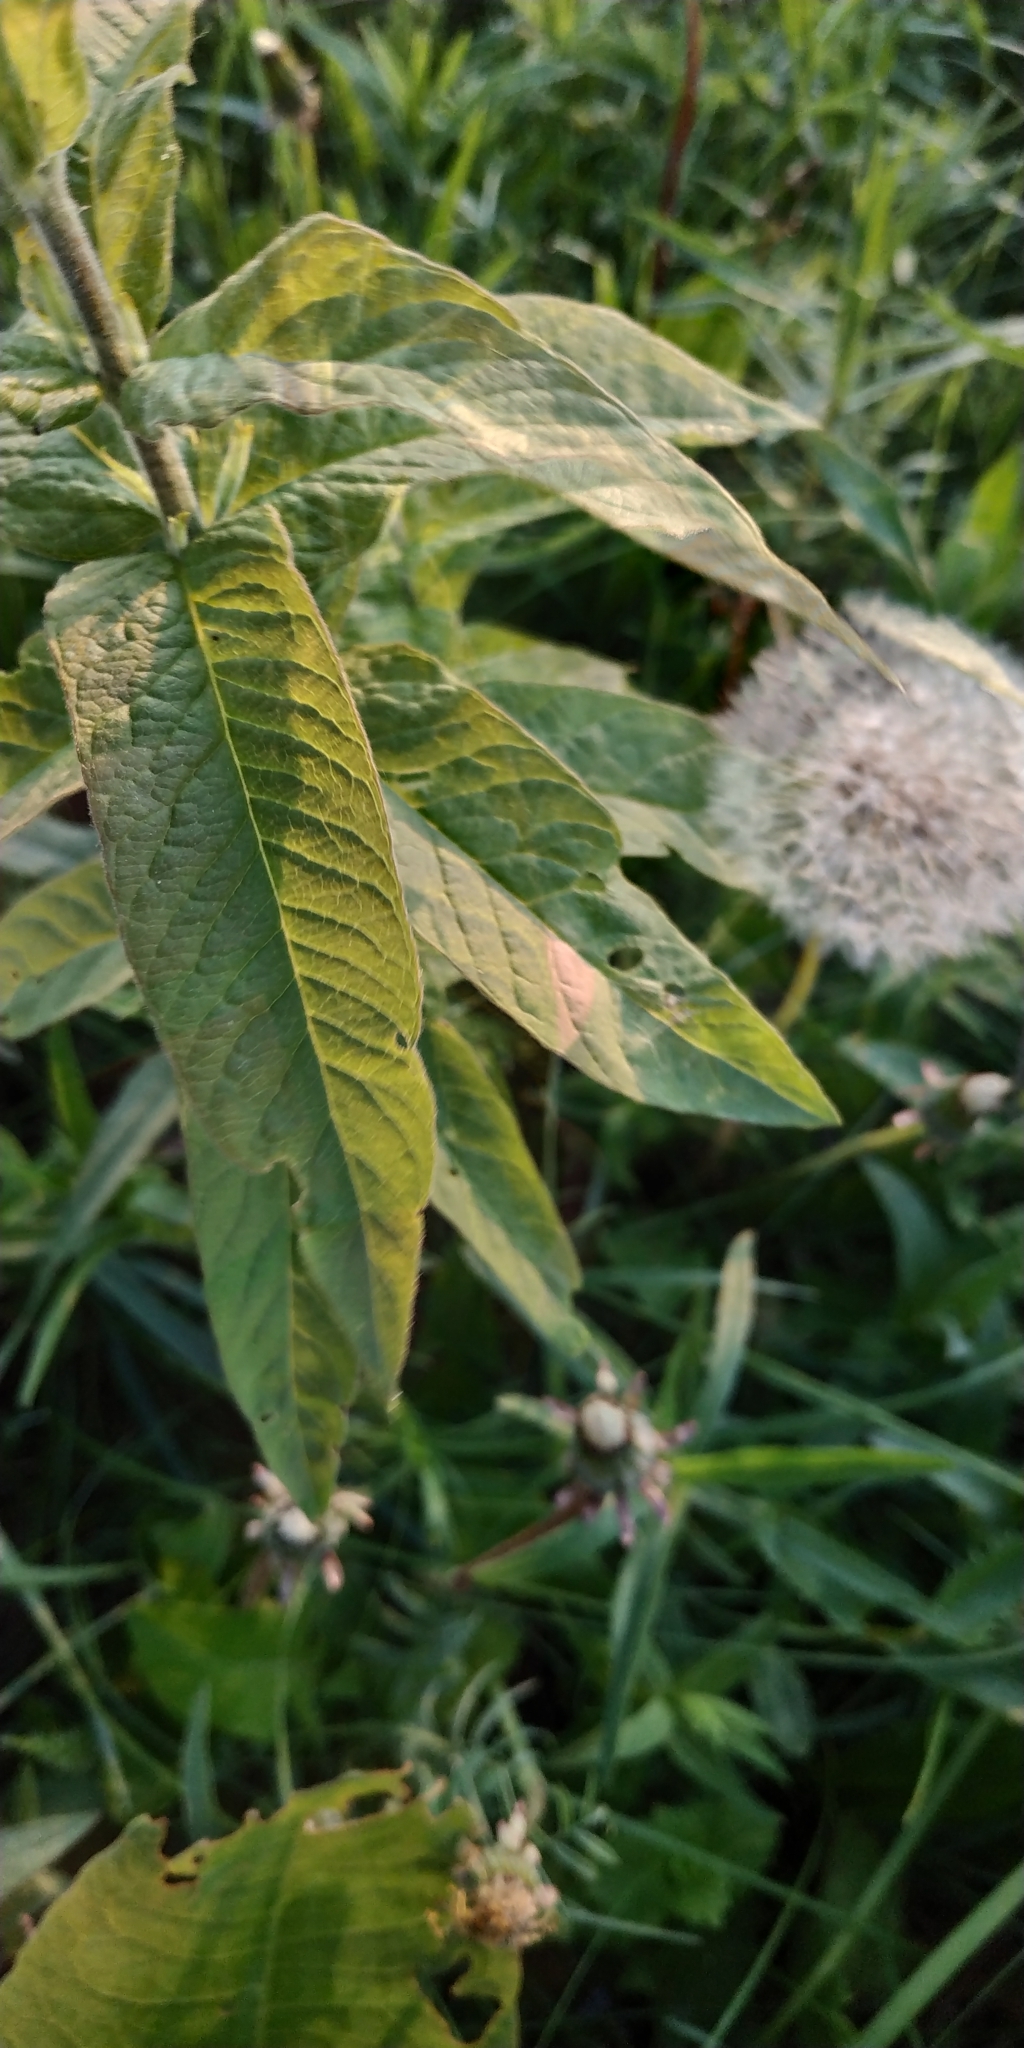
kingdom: Plantae
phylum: Tracheophyta
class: Magnoliopsida
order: Ericales
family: Primulaceae
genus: Lysimachia
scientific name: Lysimachia vulgaris
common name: Yellow loosestrife
